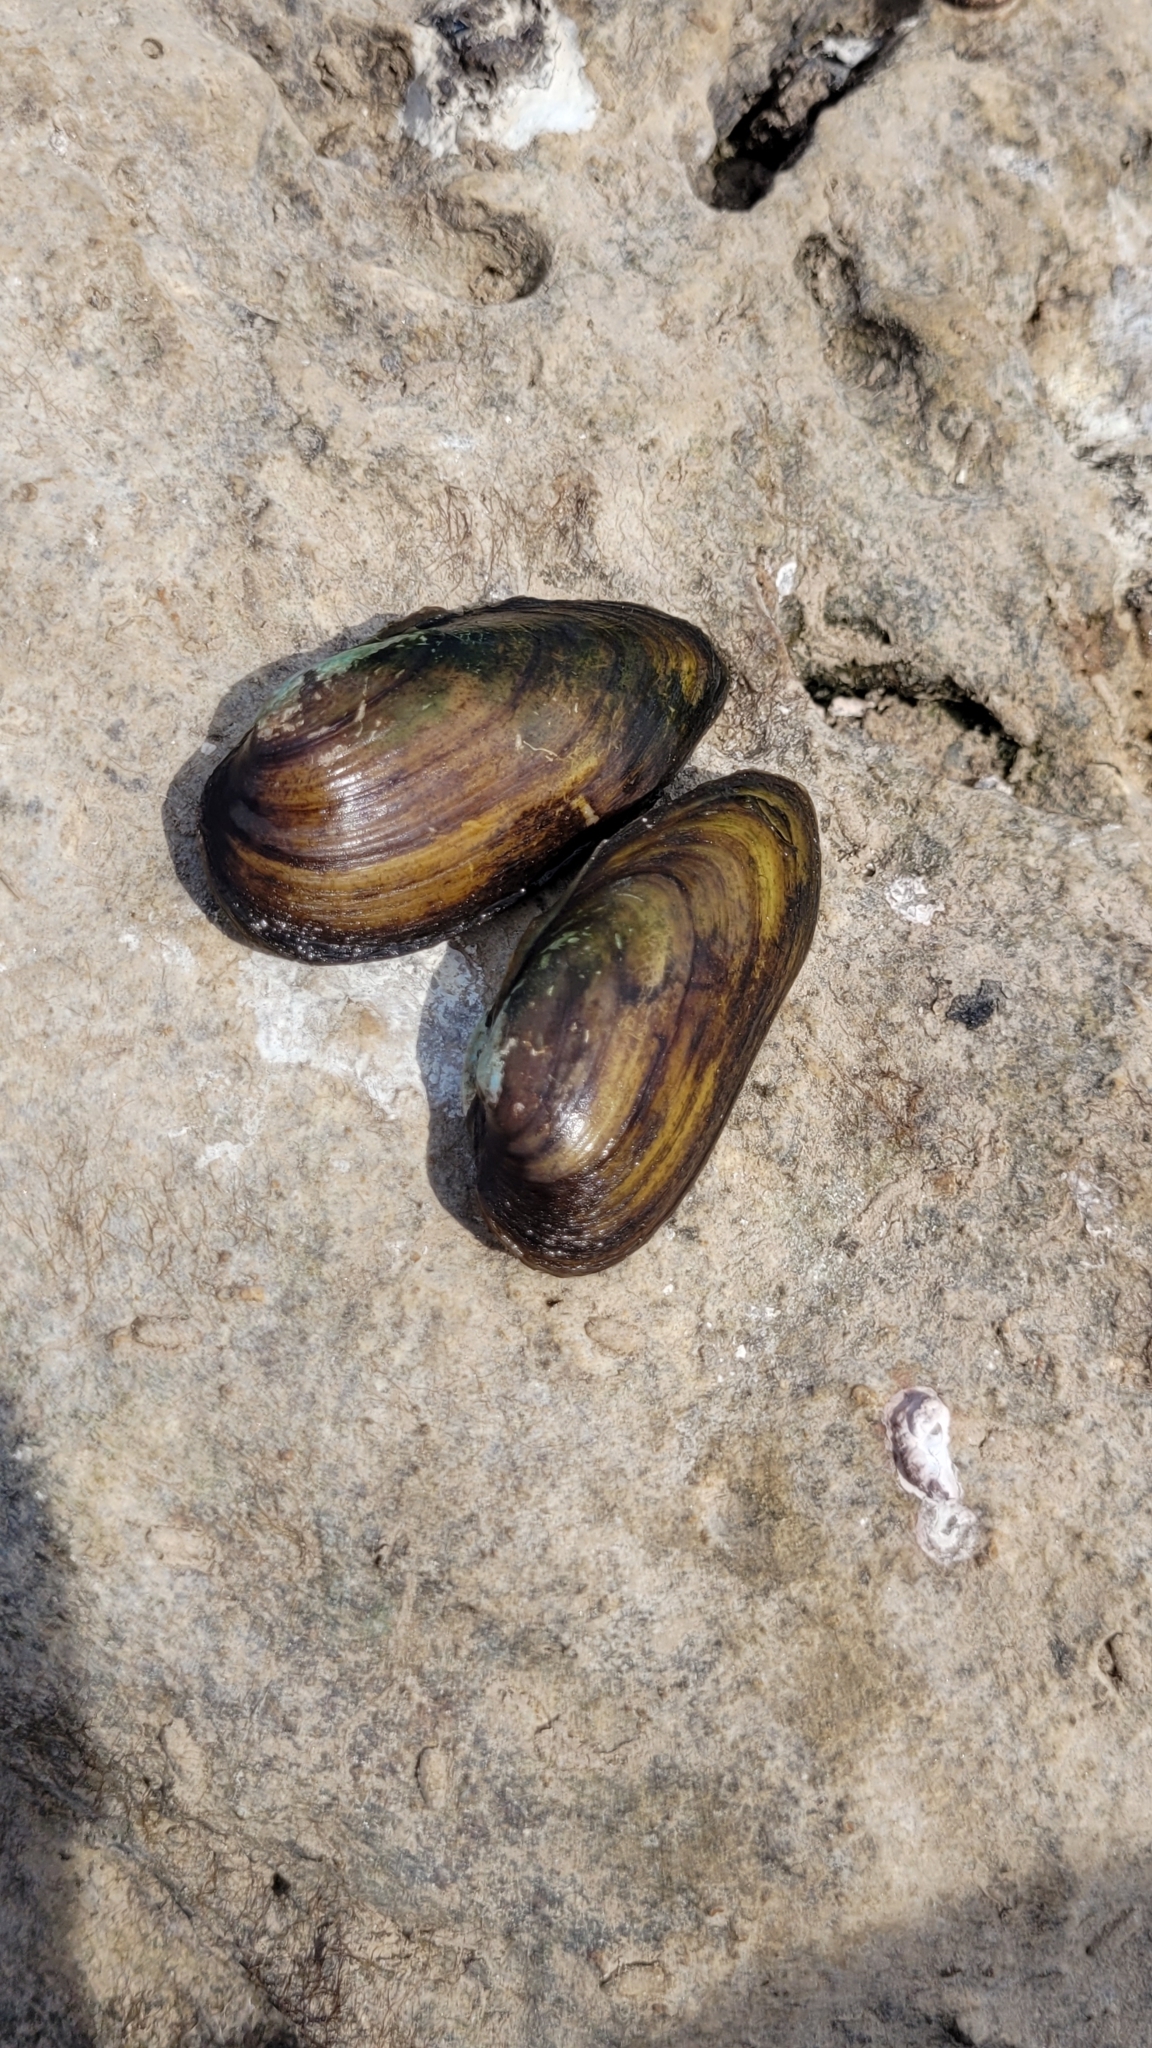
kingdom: Animalia
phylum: Mollusca
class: Bivalvia
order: Unionida
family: Unionidae
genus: Unio
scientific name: Unio pictorum
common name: Painter's mussel
